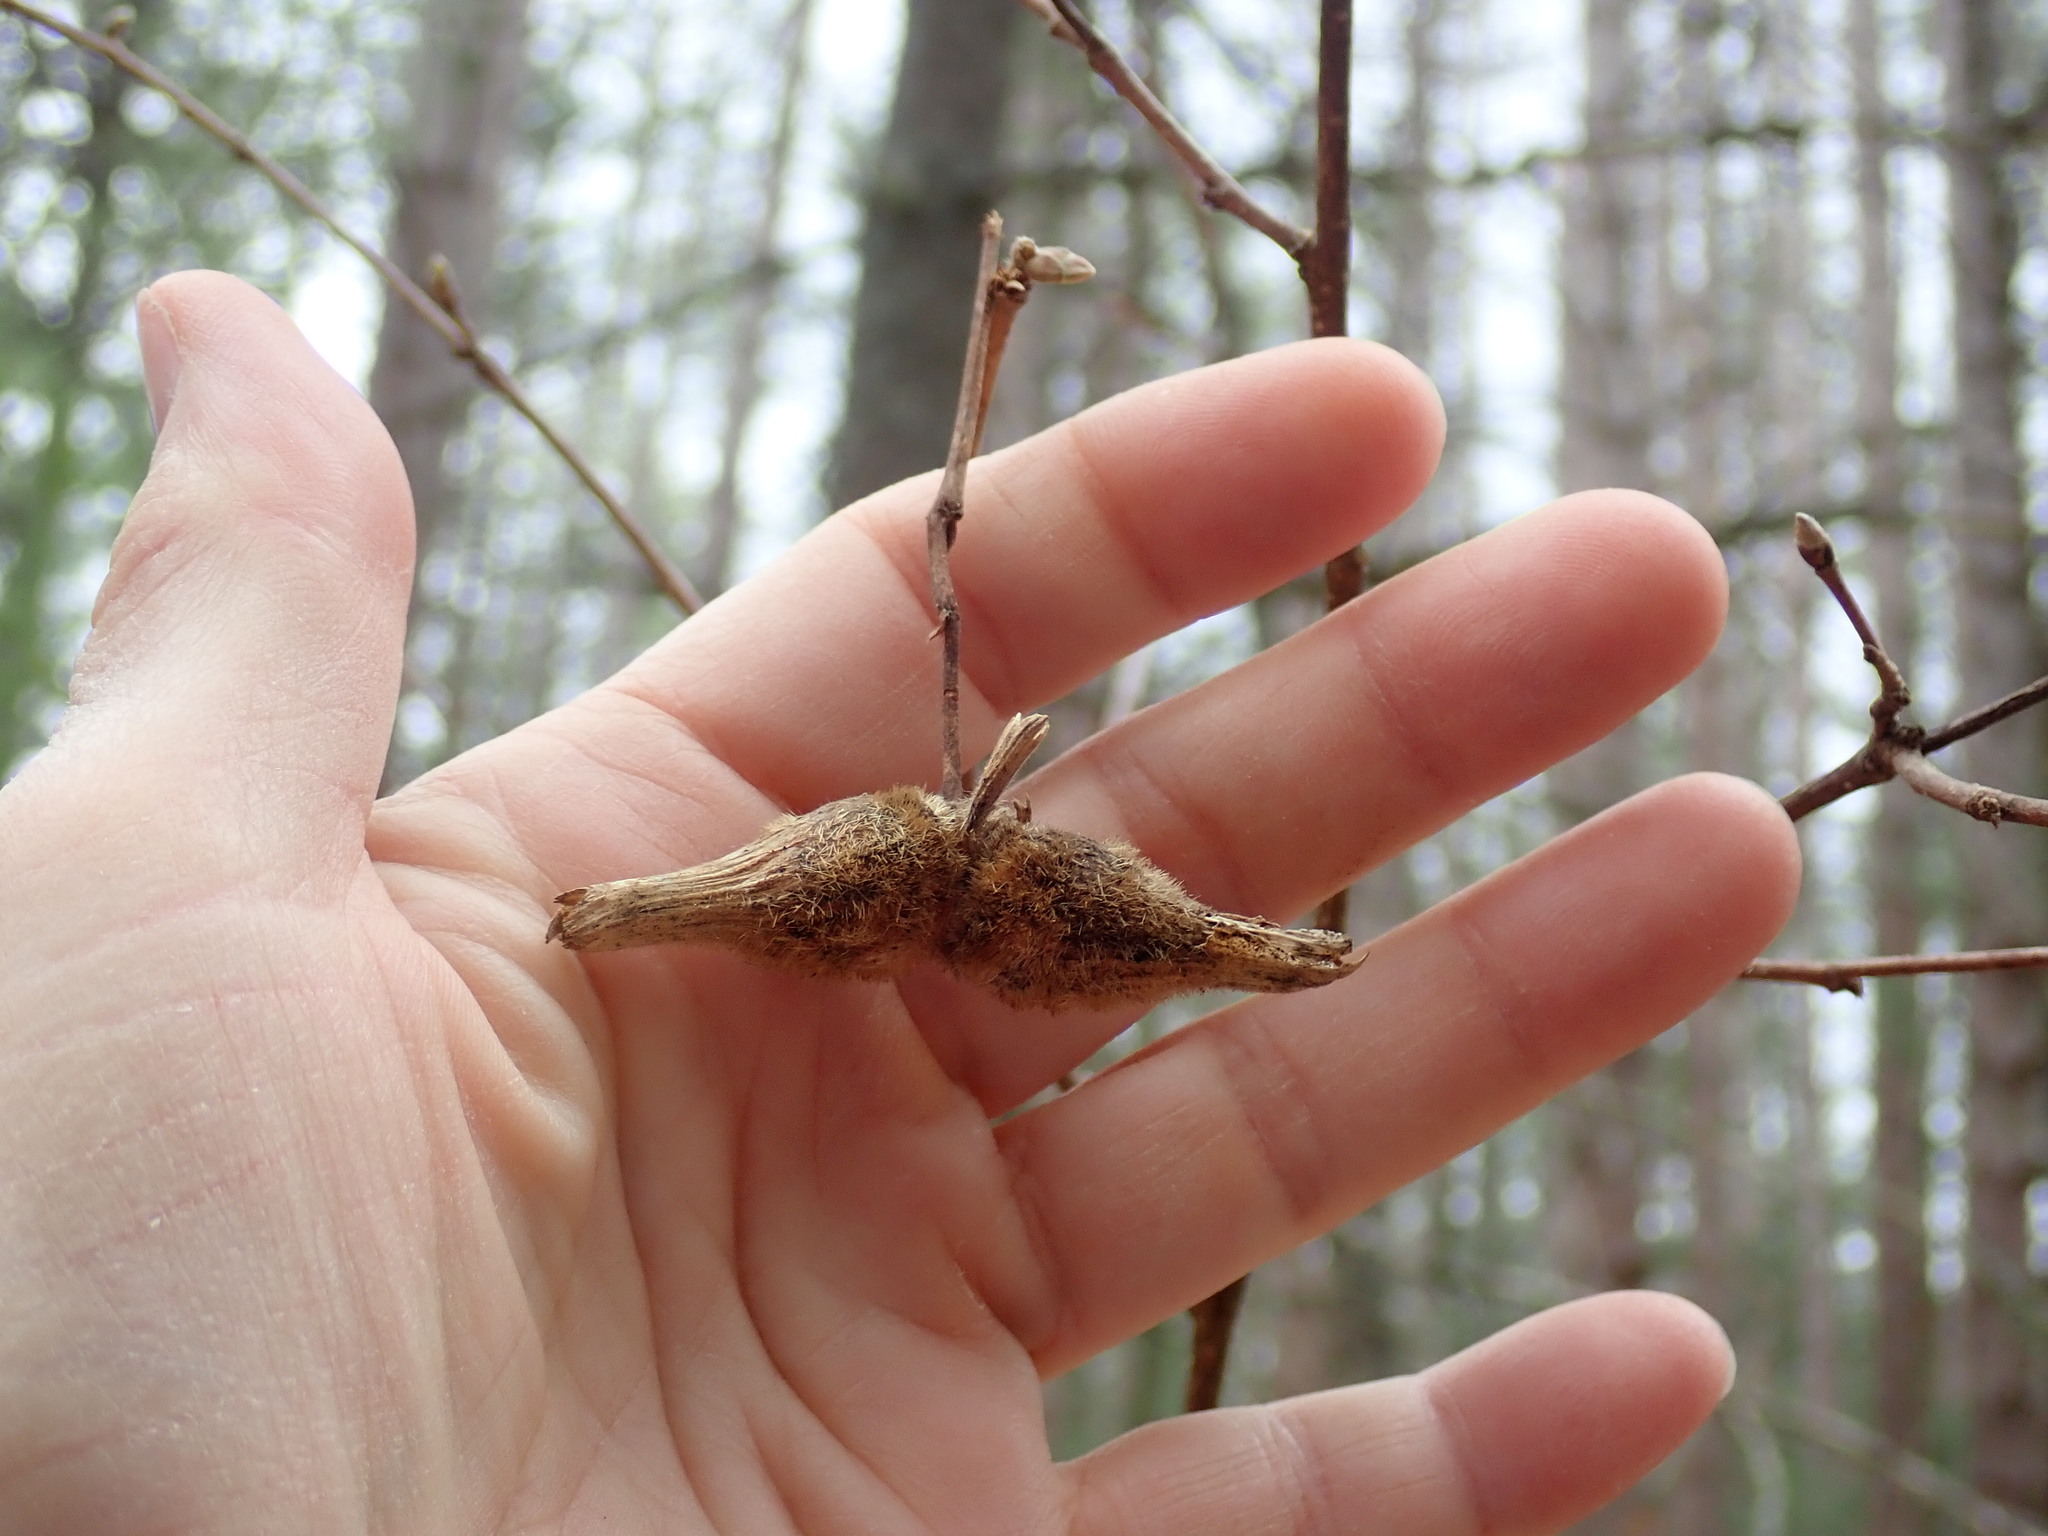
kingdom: Plantae
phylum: Tracheophyta
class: Magnoliopsida
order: Fagales
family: Betulaceae
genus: Corylus
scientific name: Corylus cornuta
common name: Beaked hazel
